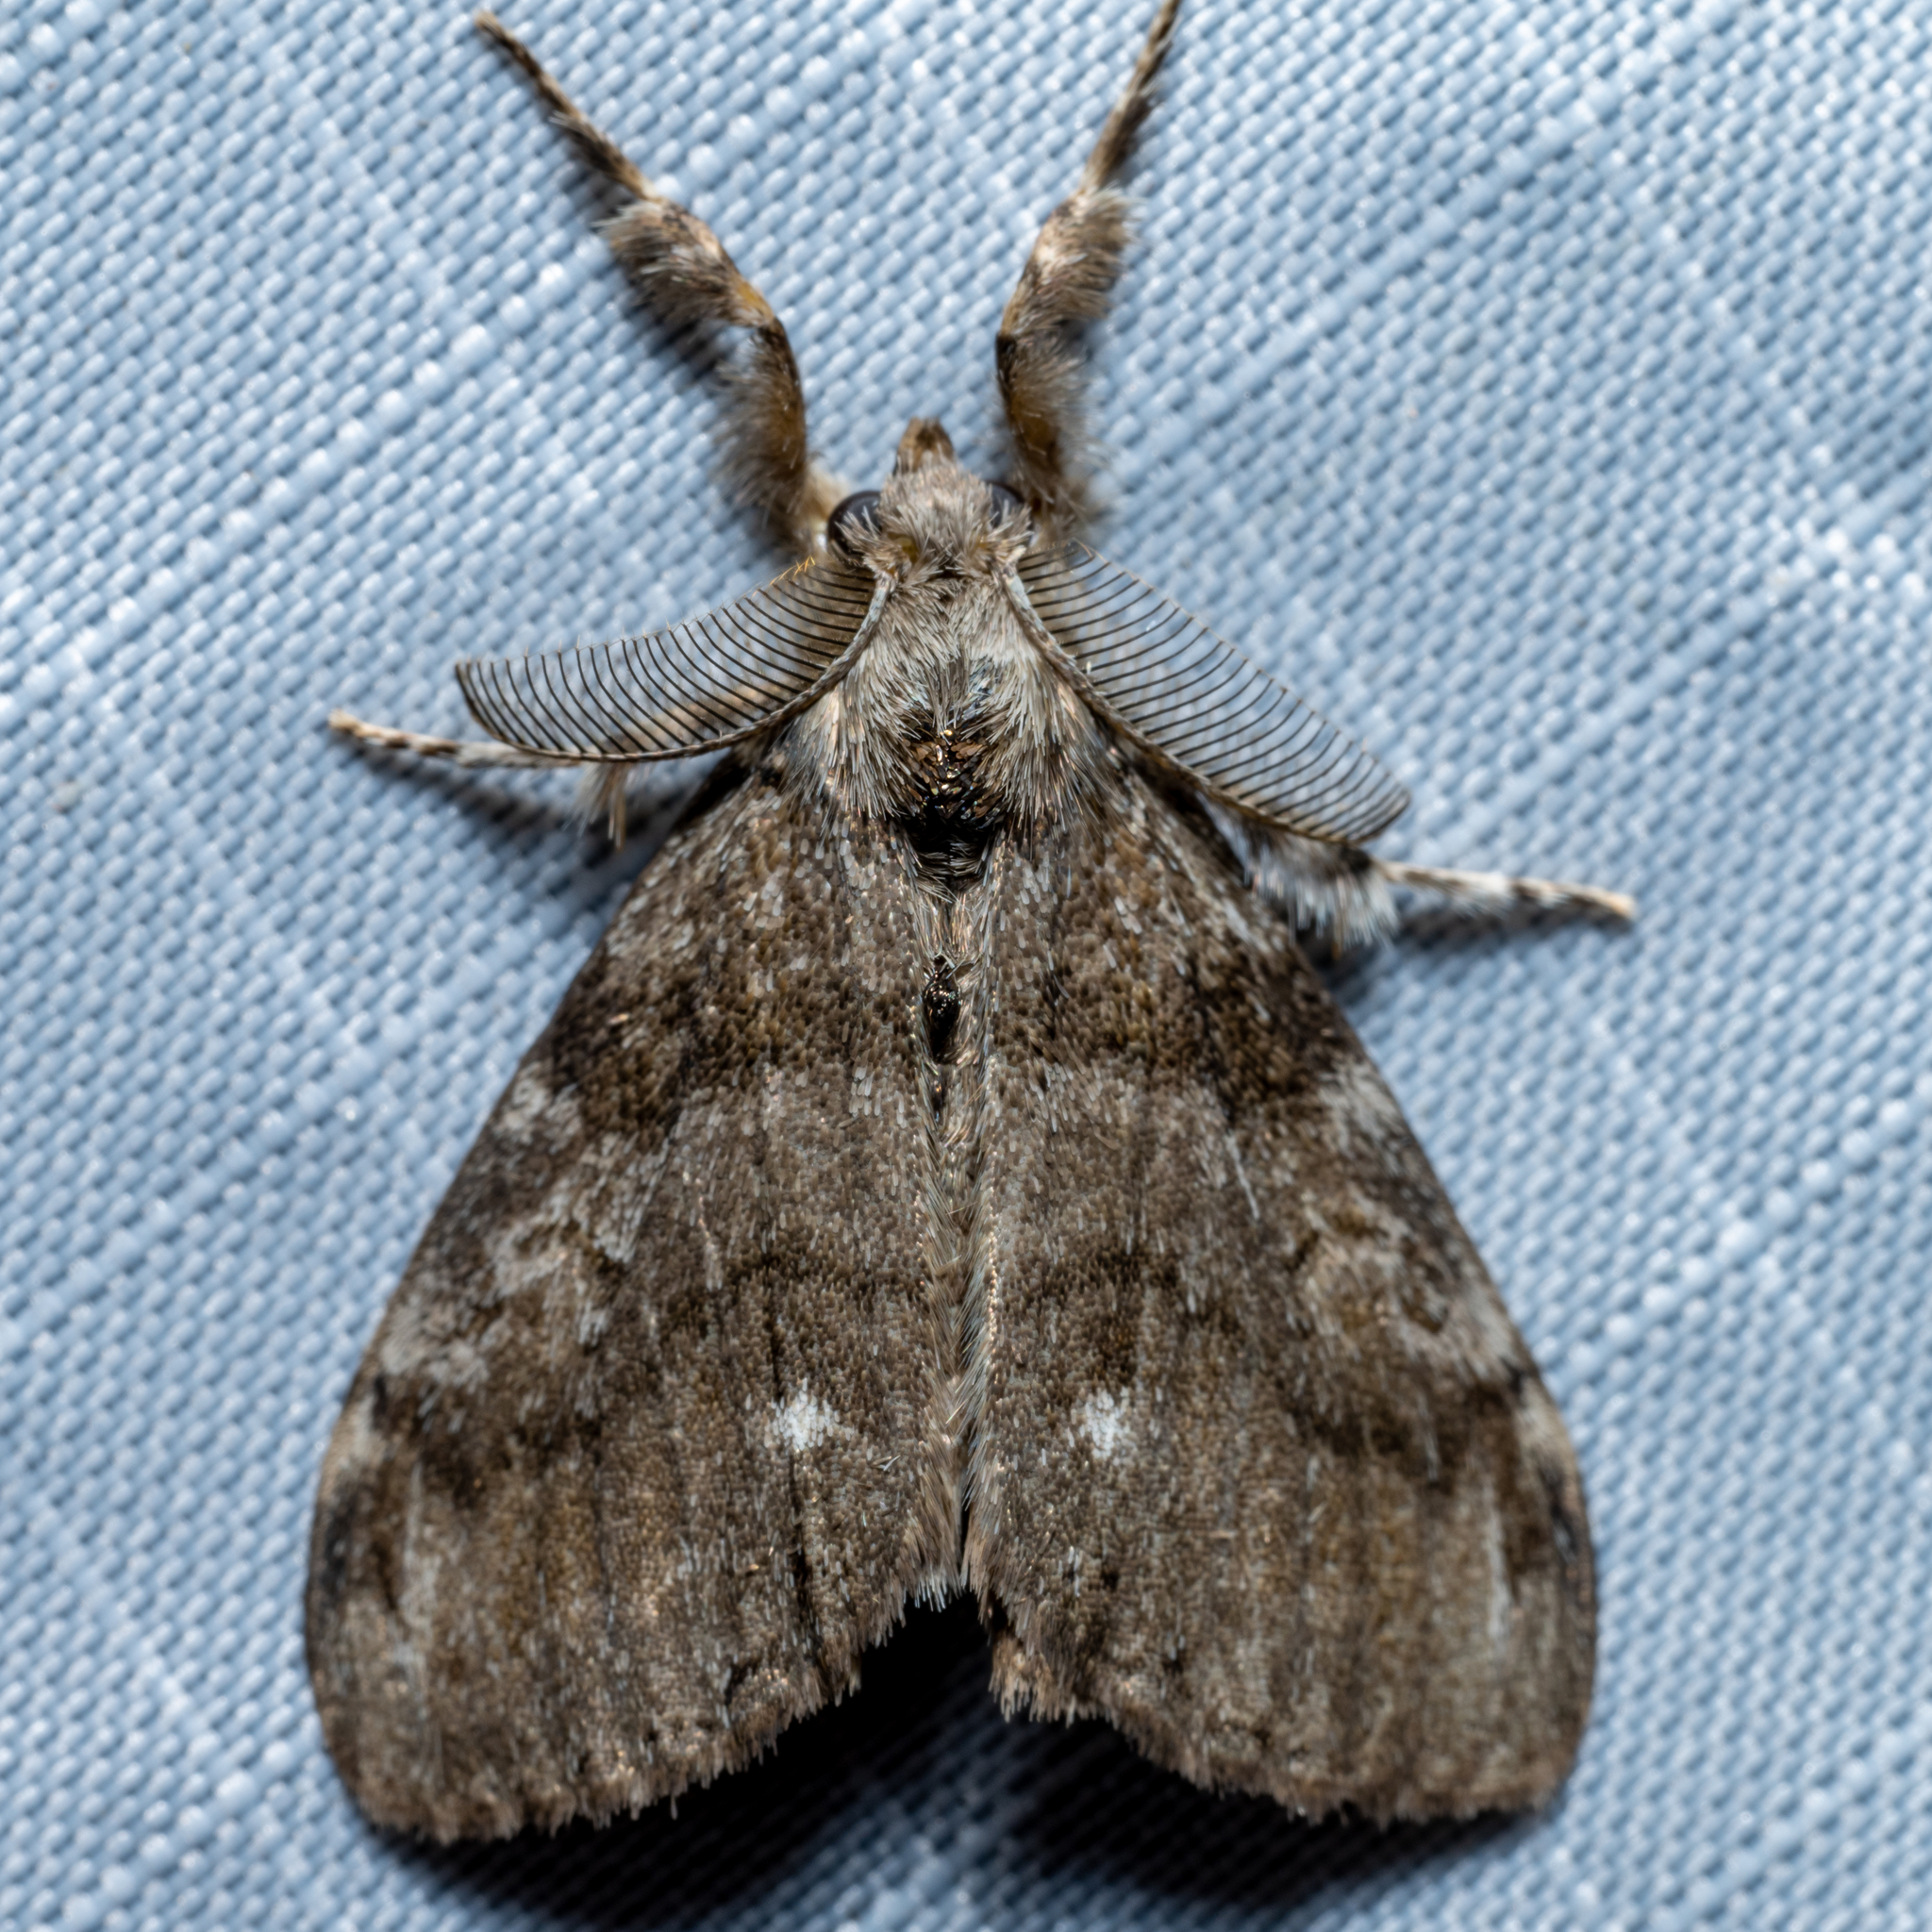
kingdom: Animalia
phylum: Arthropoda
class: Insecta
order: Lepidoptera
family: Erebidae
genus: Orgyia
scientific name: Orgyia leucostigma
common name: White-marked tussock moth
